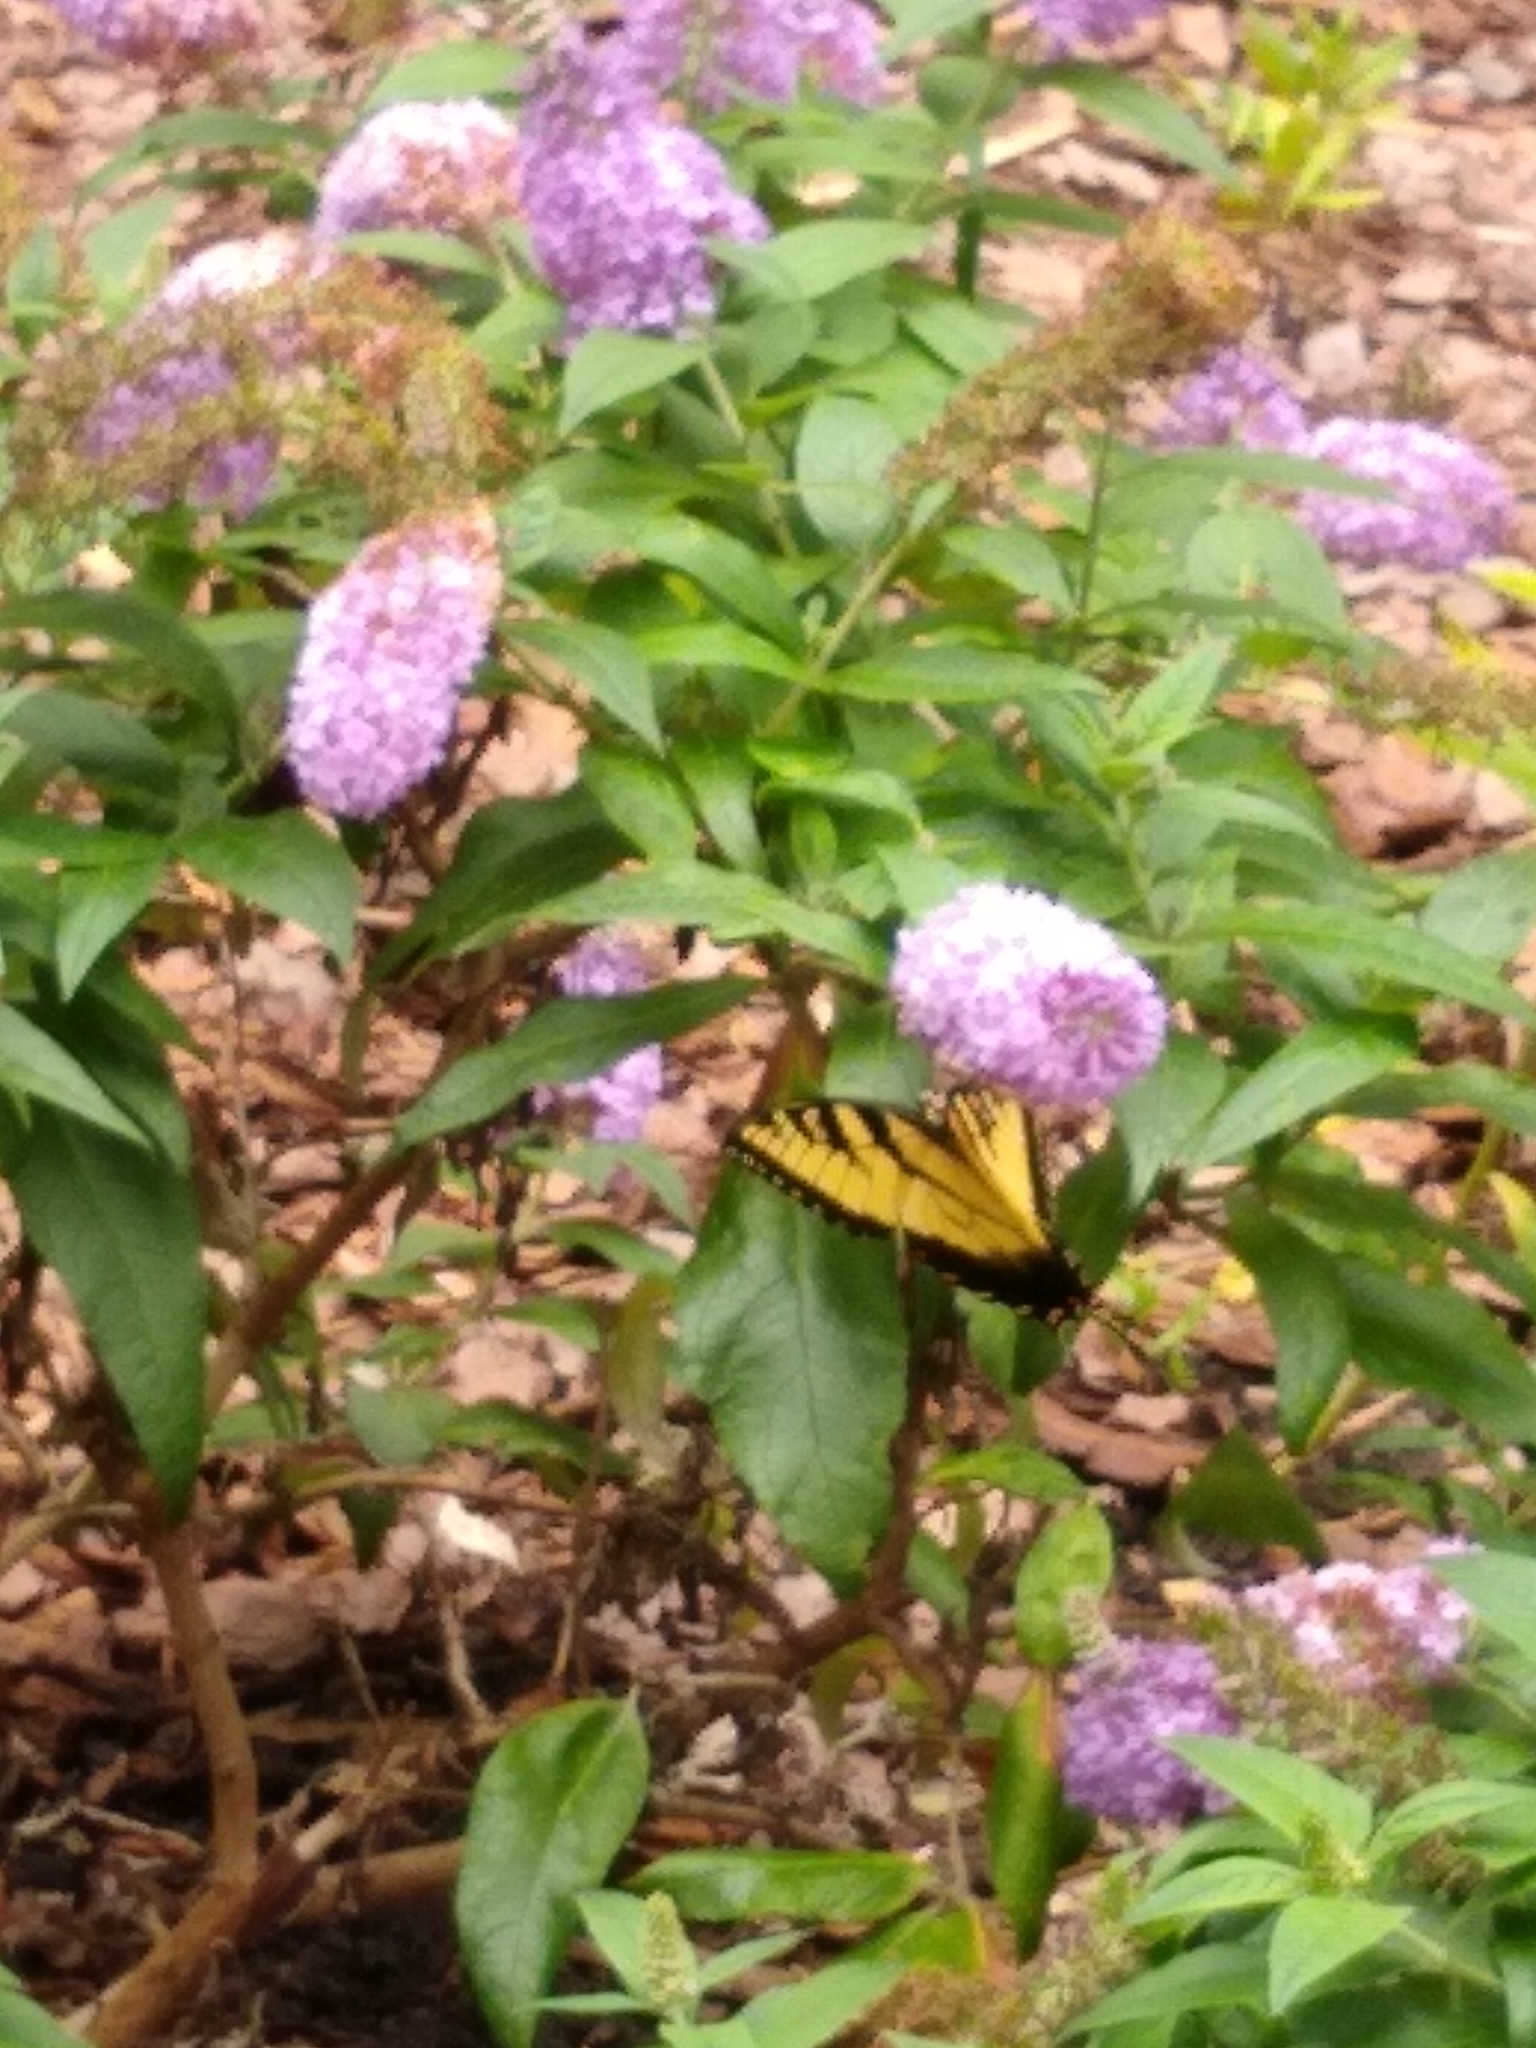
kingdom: Animalia
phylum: Arthropoda
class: Insecta
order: Lepidoptera
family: Papilionidae
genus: Papilio
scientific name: Papilio glaucus
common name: Tiger swallowtail
